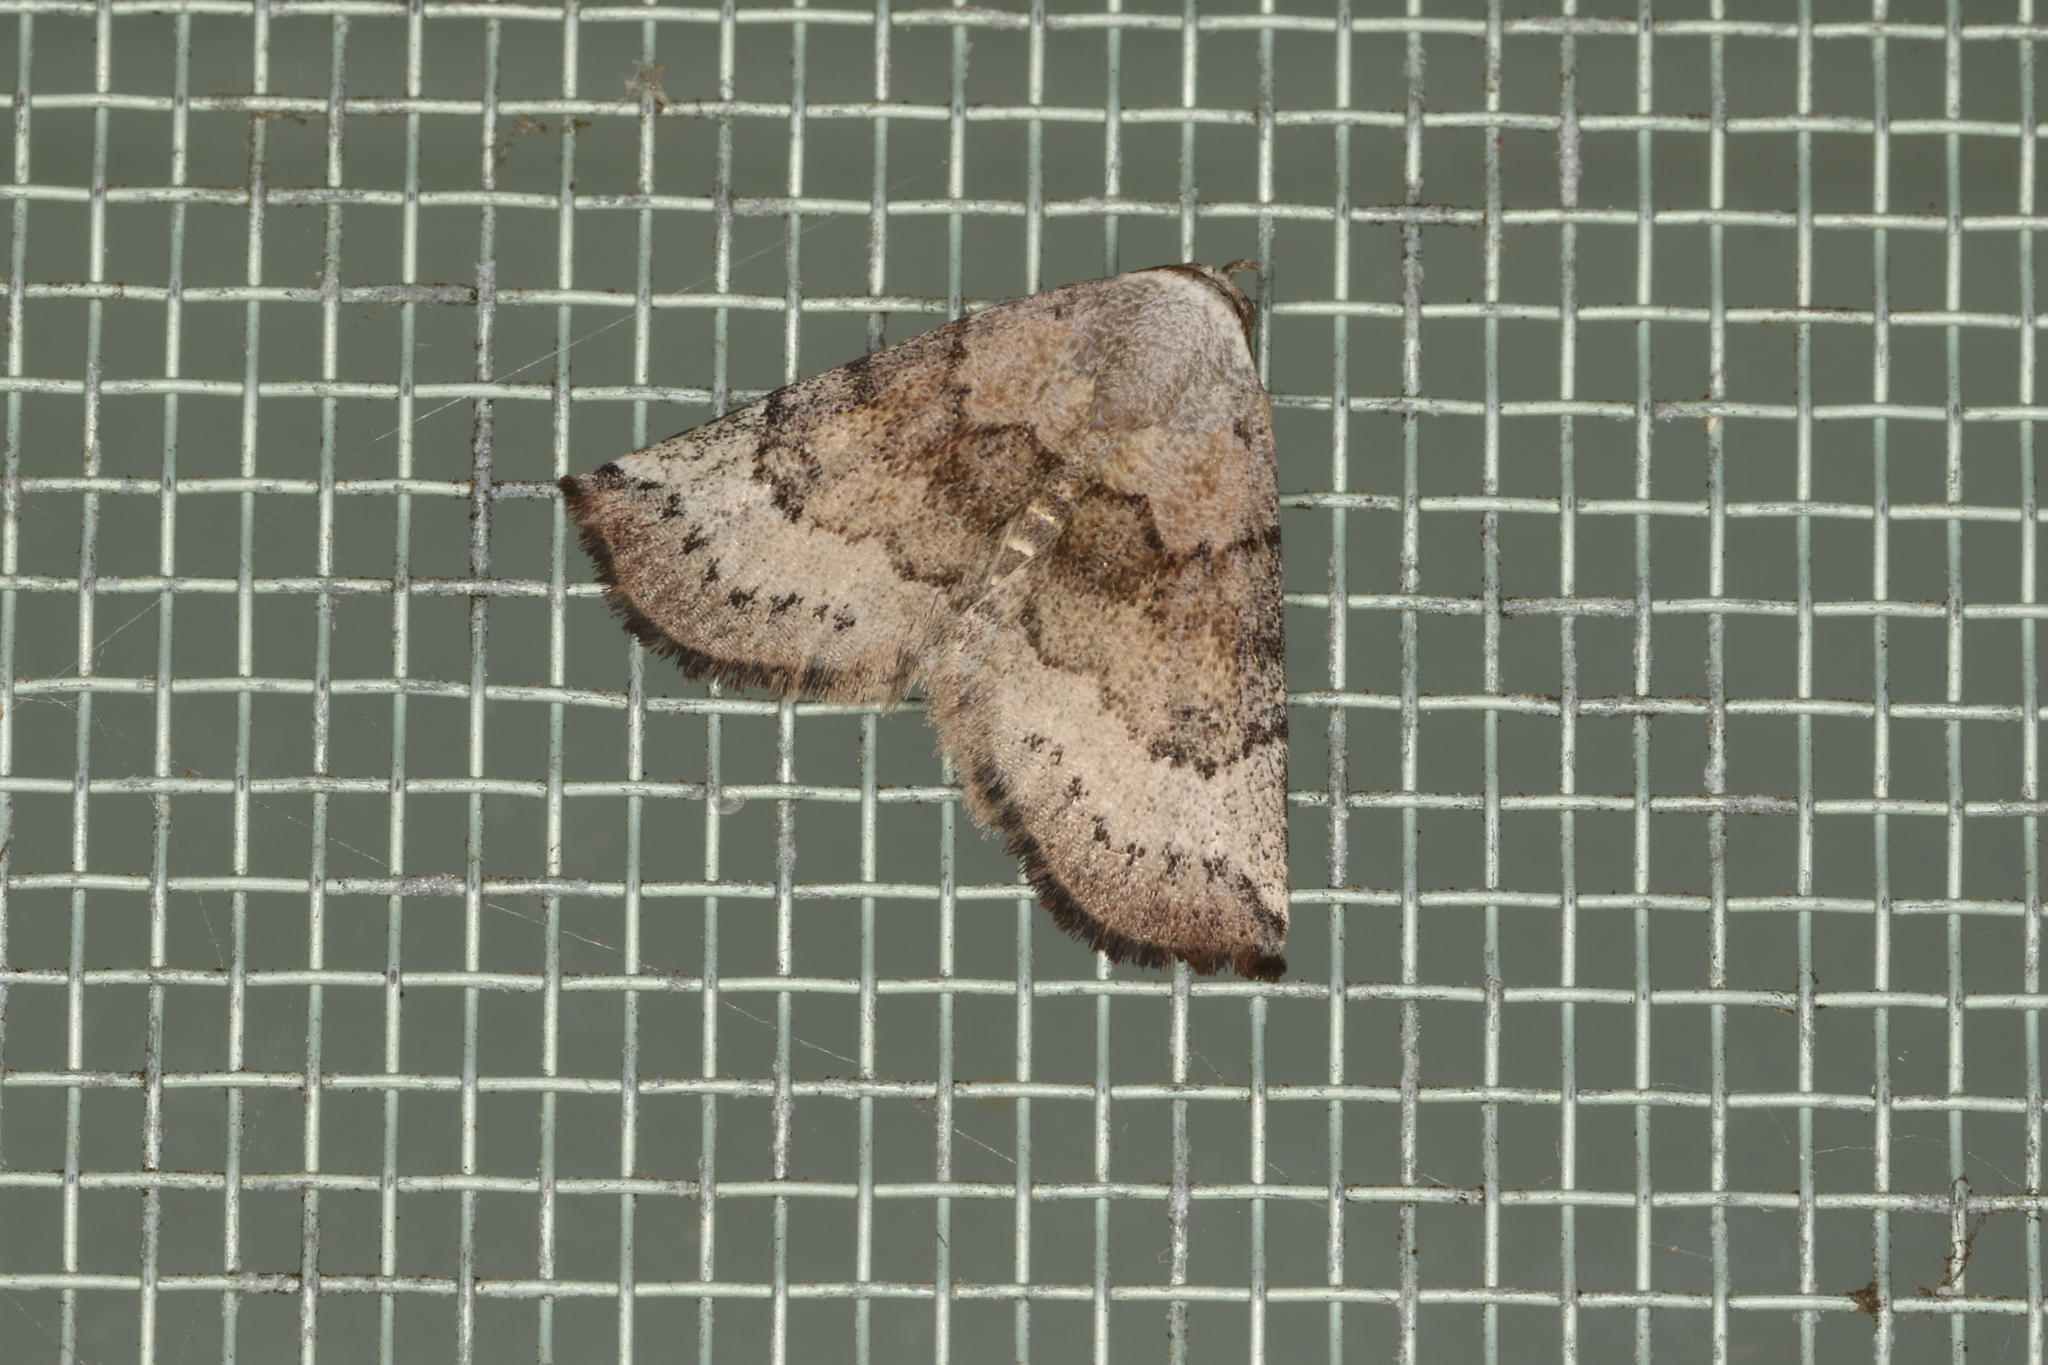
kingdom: Animalia
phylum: Arthropoda
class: Insecta
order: Lepidoptera
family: Noctuidae
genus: Mataeomera
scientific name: Mataeomera mesotaenia
